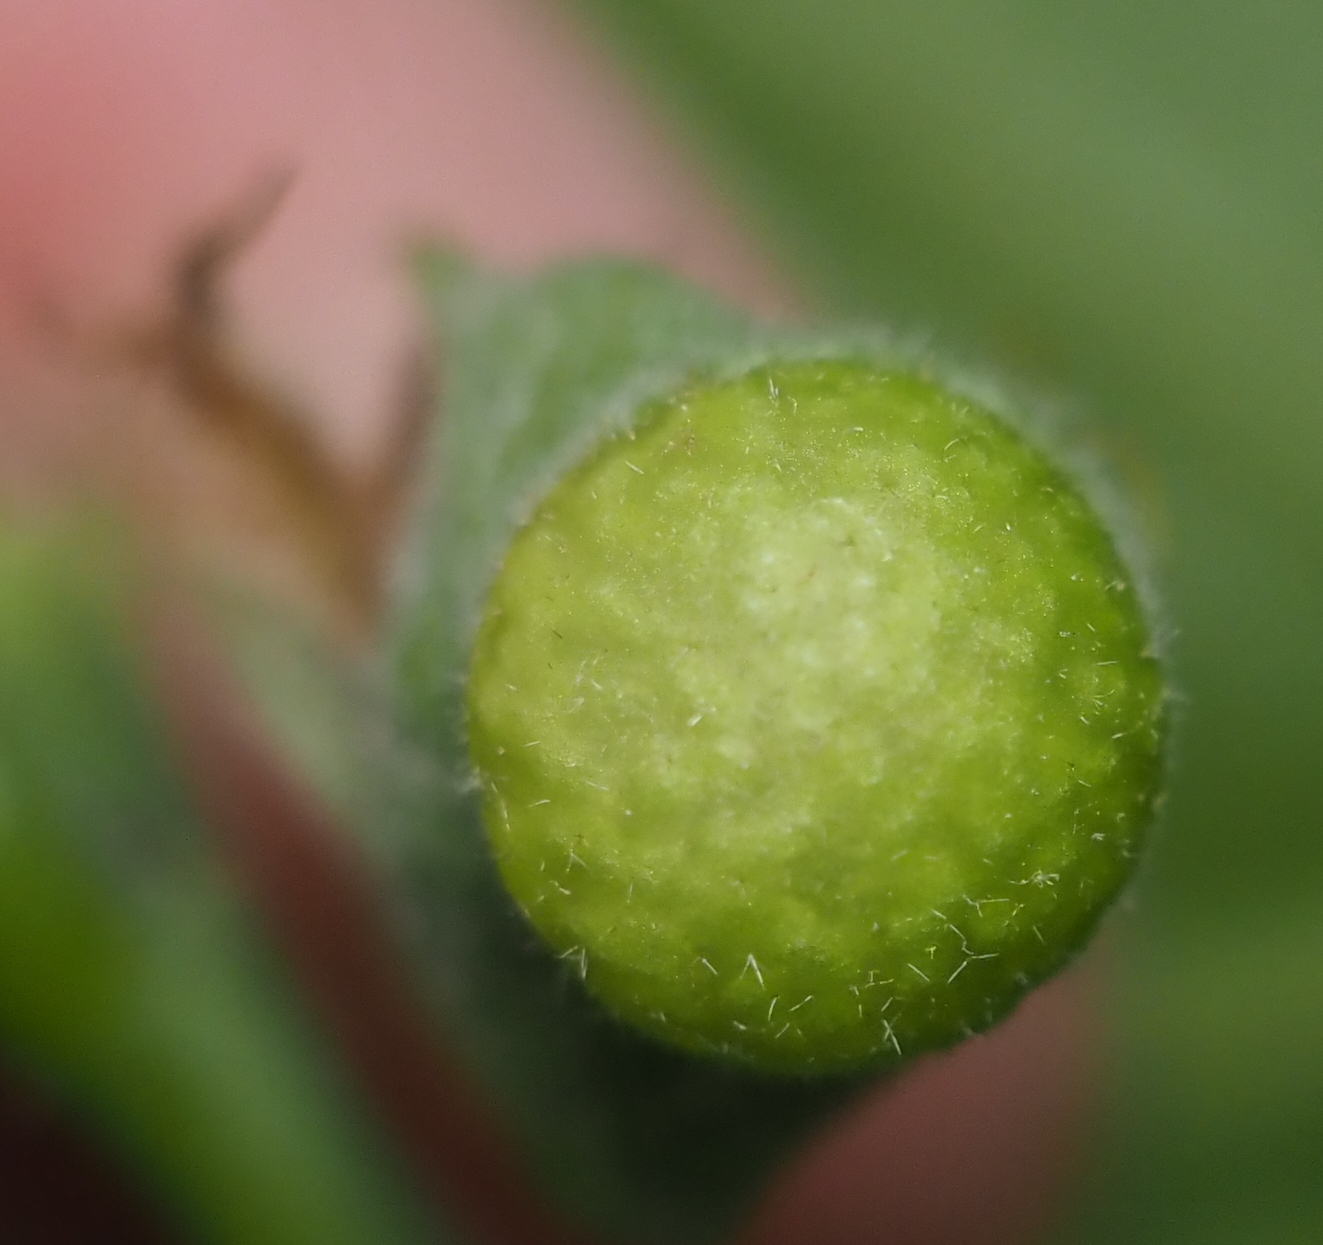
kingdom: Animalia
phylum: Arthropoda
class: Insecta
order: Hymenoptera
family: Cynipidae
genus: Amphibolips
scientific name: Amphibolips
